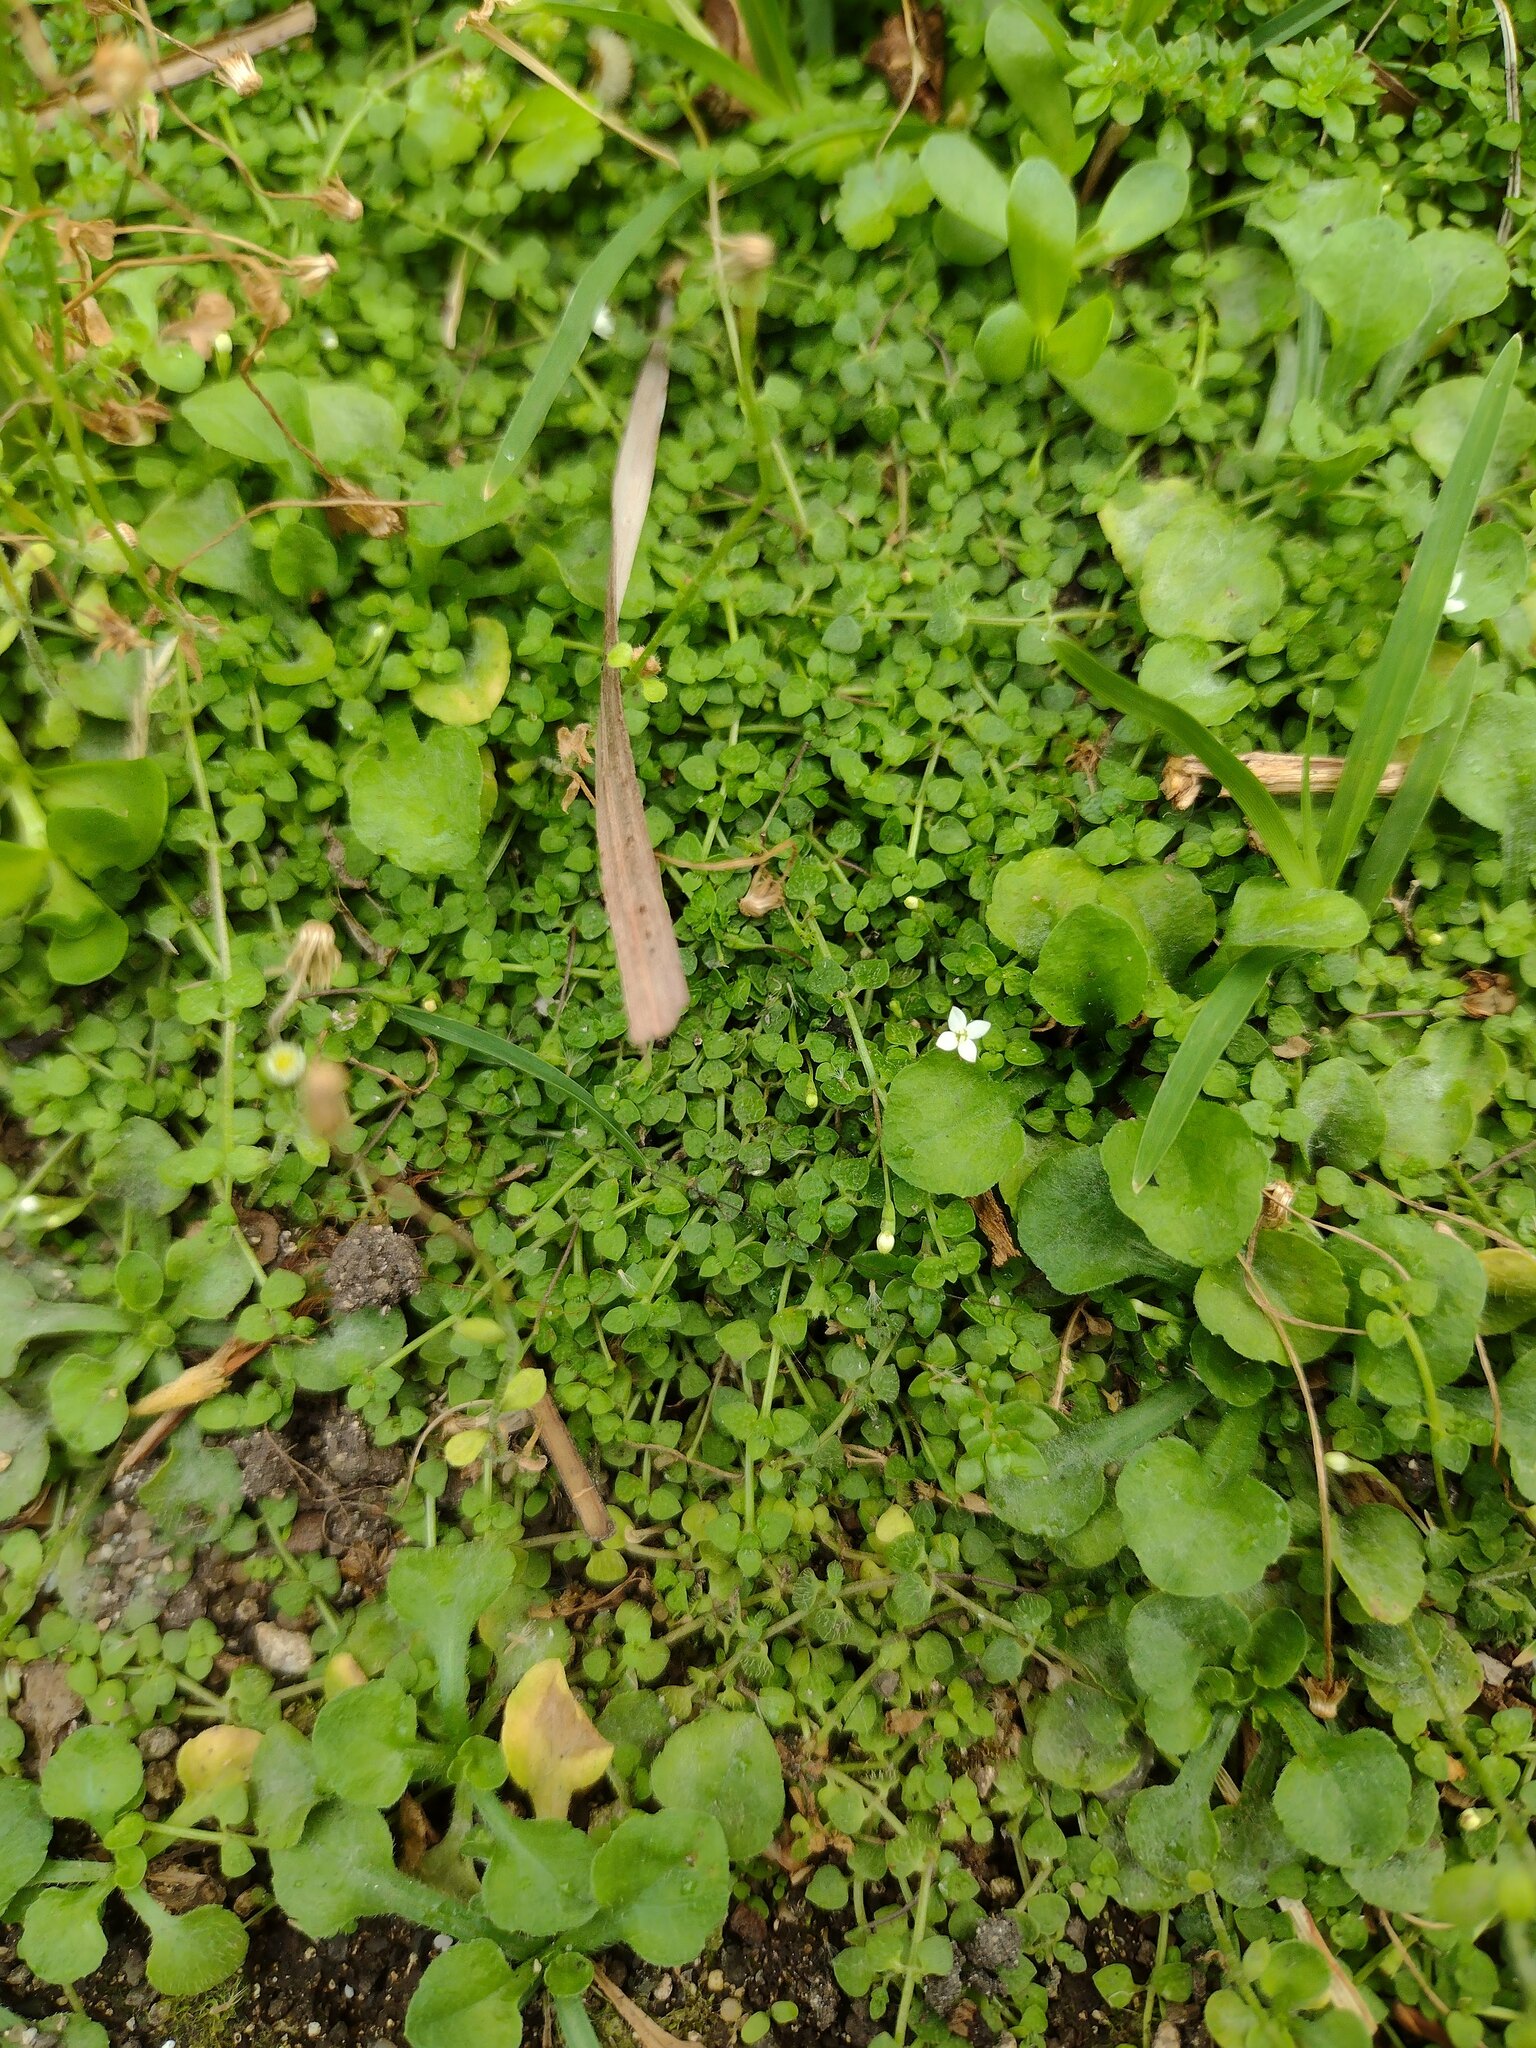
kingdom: Plantae
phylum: Tracheophyta
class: Magnoliopsida
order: Gentianales
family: Rubiaceae
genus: Oldenlandiopsis
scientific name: Oldenlandiopsis callitrichoides
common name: Creeping-bluet
